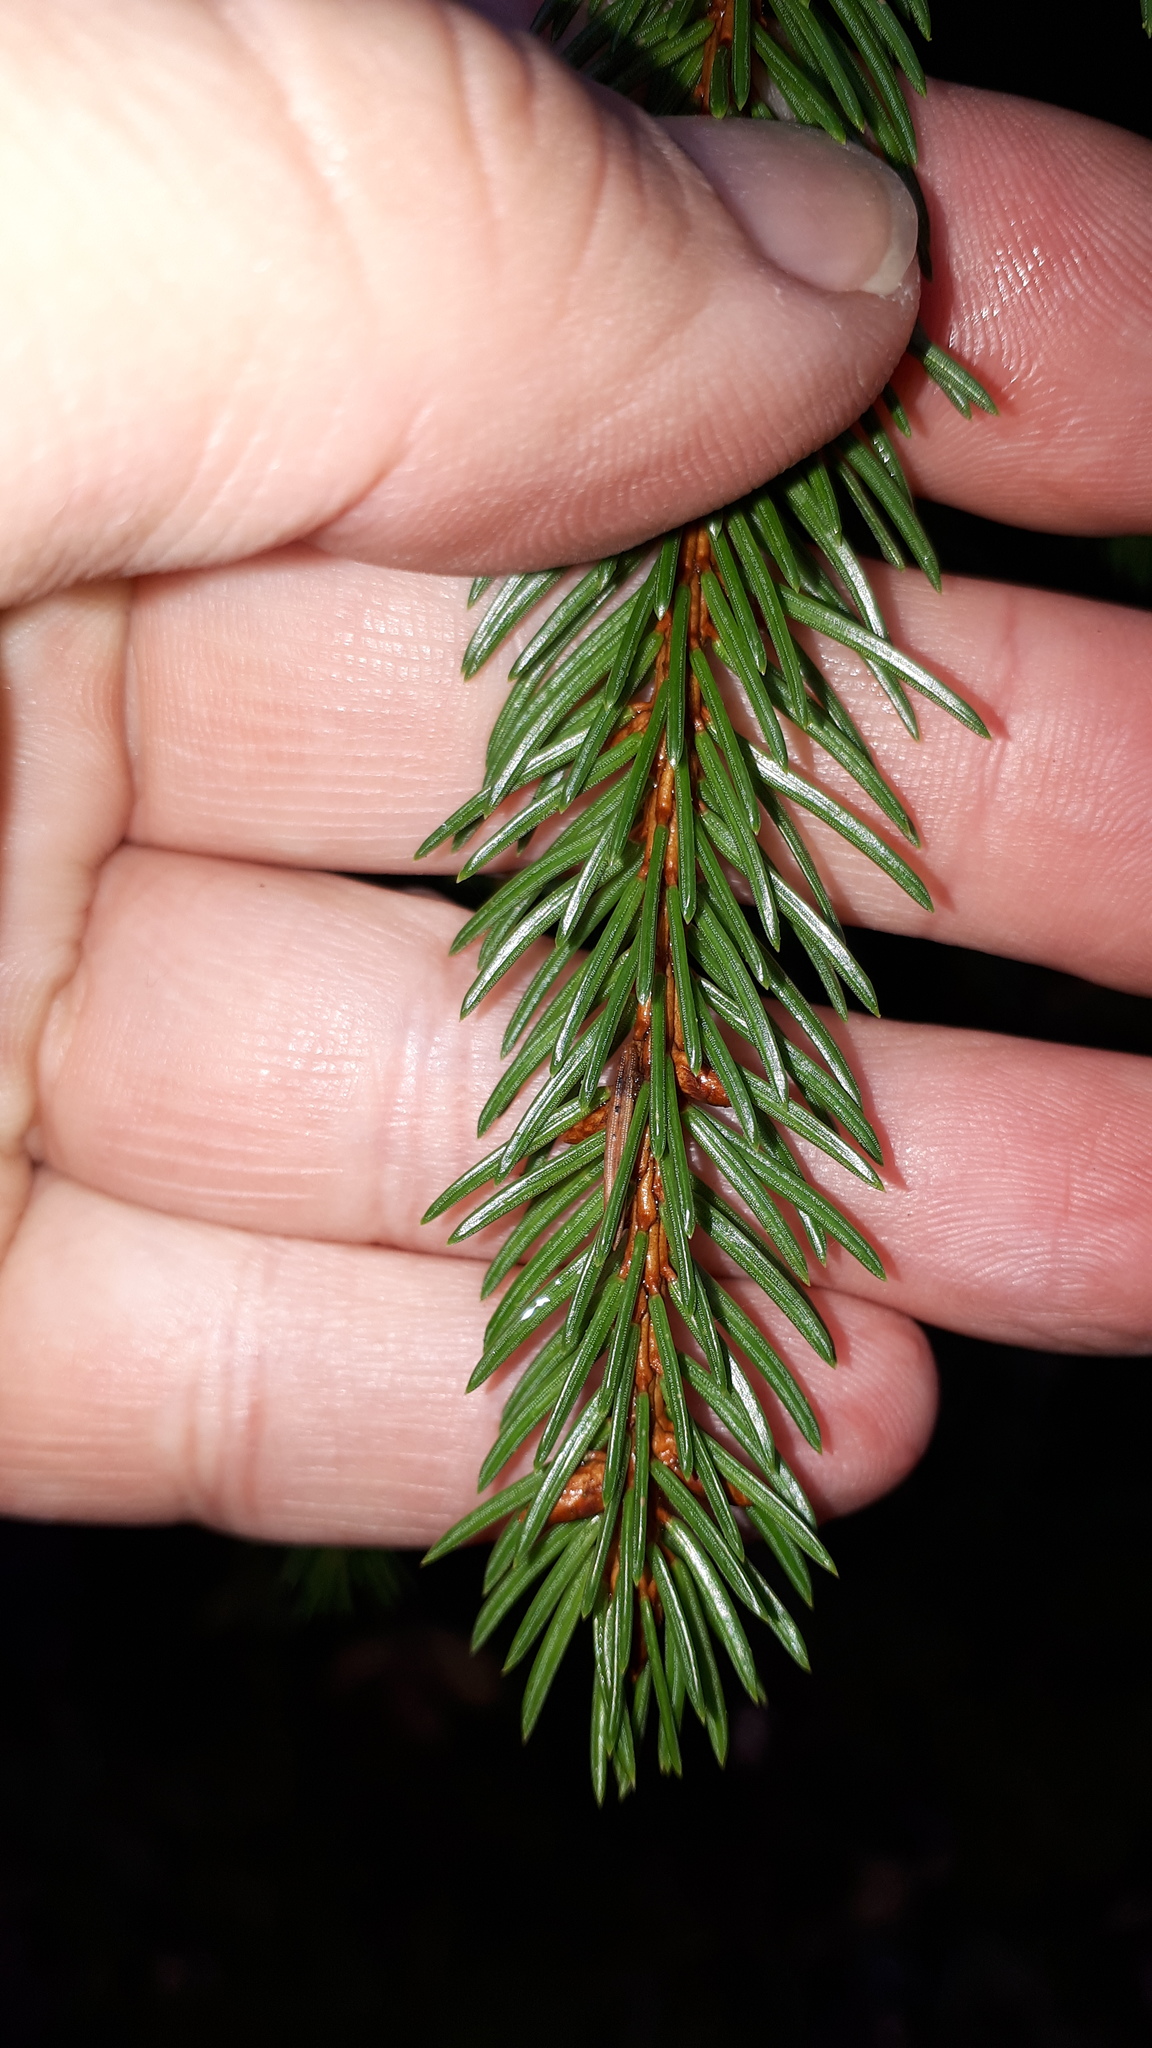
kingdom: Plantae
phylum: Tracheophyta
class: Pinopsida
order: Pinales
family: Pinaceae
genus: Picea
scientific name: Picea abies
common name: Norway spruce
